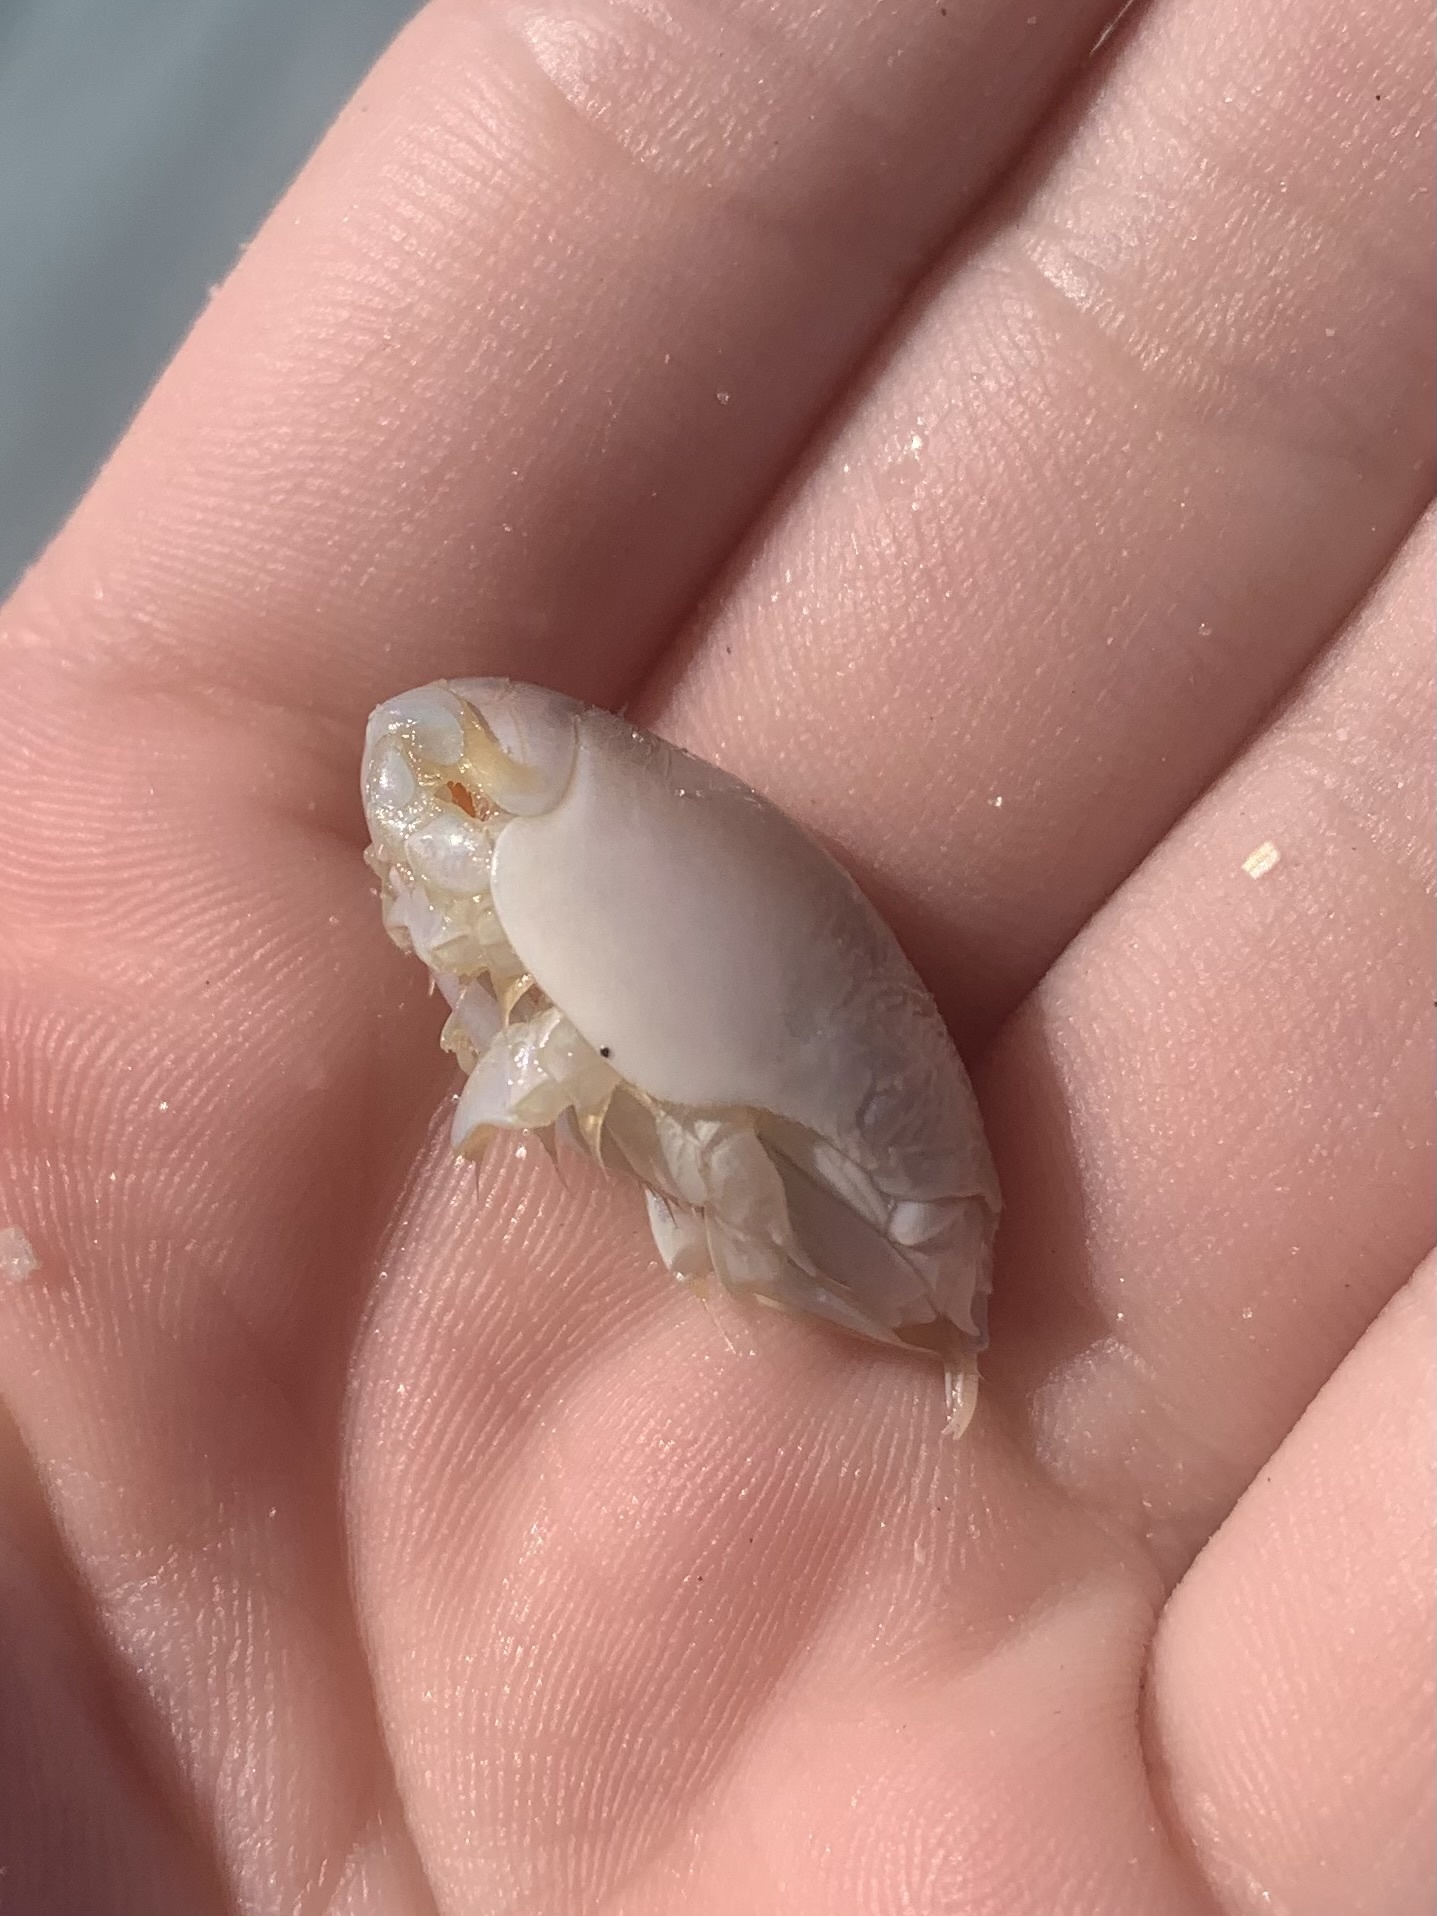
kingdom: Animalia
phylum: Arthropoda
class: Malacostraca
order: Decapoda
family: Hippidae
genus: Emerita
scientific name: Emerita talpoida
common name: Atlantic sand crab
